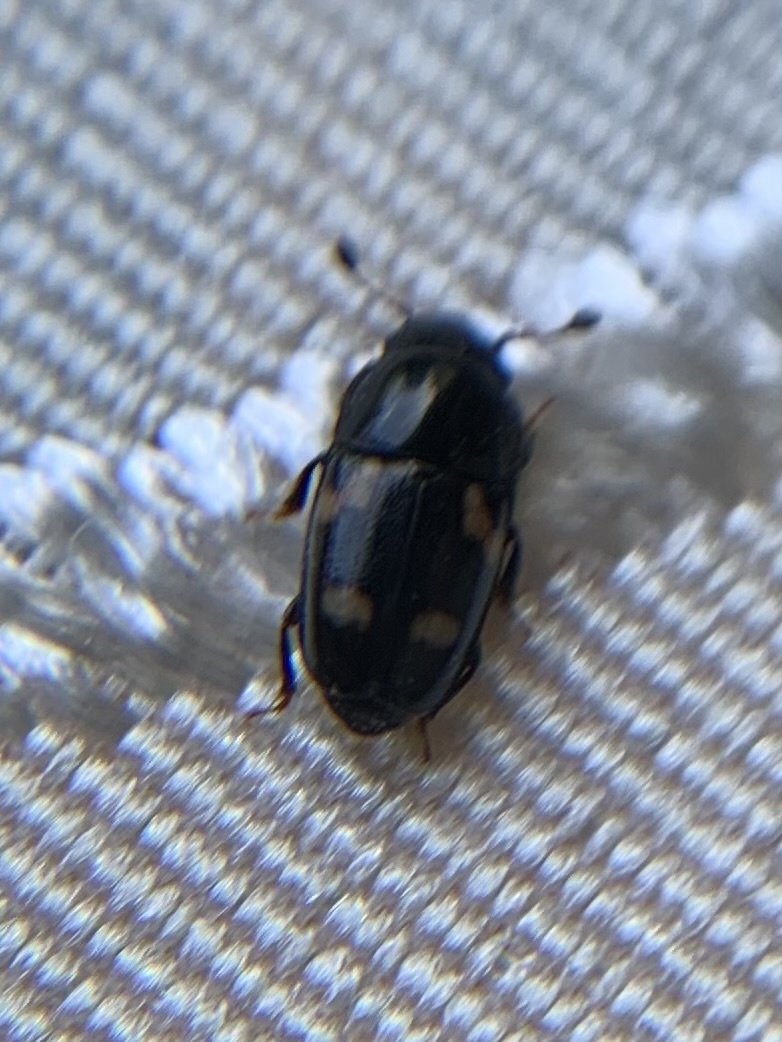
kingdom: Animalia
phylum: Arthropoda
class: Insecta
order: Coleoptera
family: Nitidulidae
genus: Glischrochilus
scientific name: Glischrochilus quadrisignatus
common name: Picnic beetle
